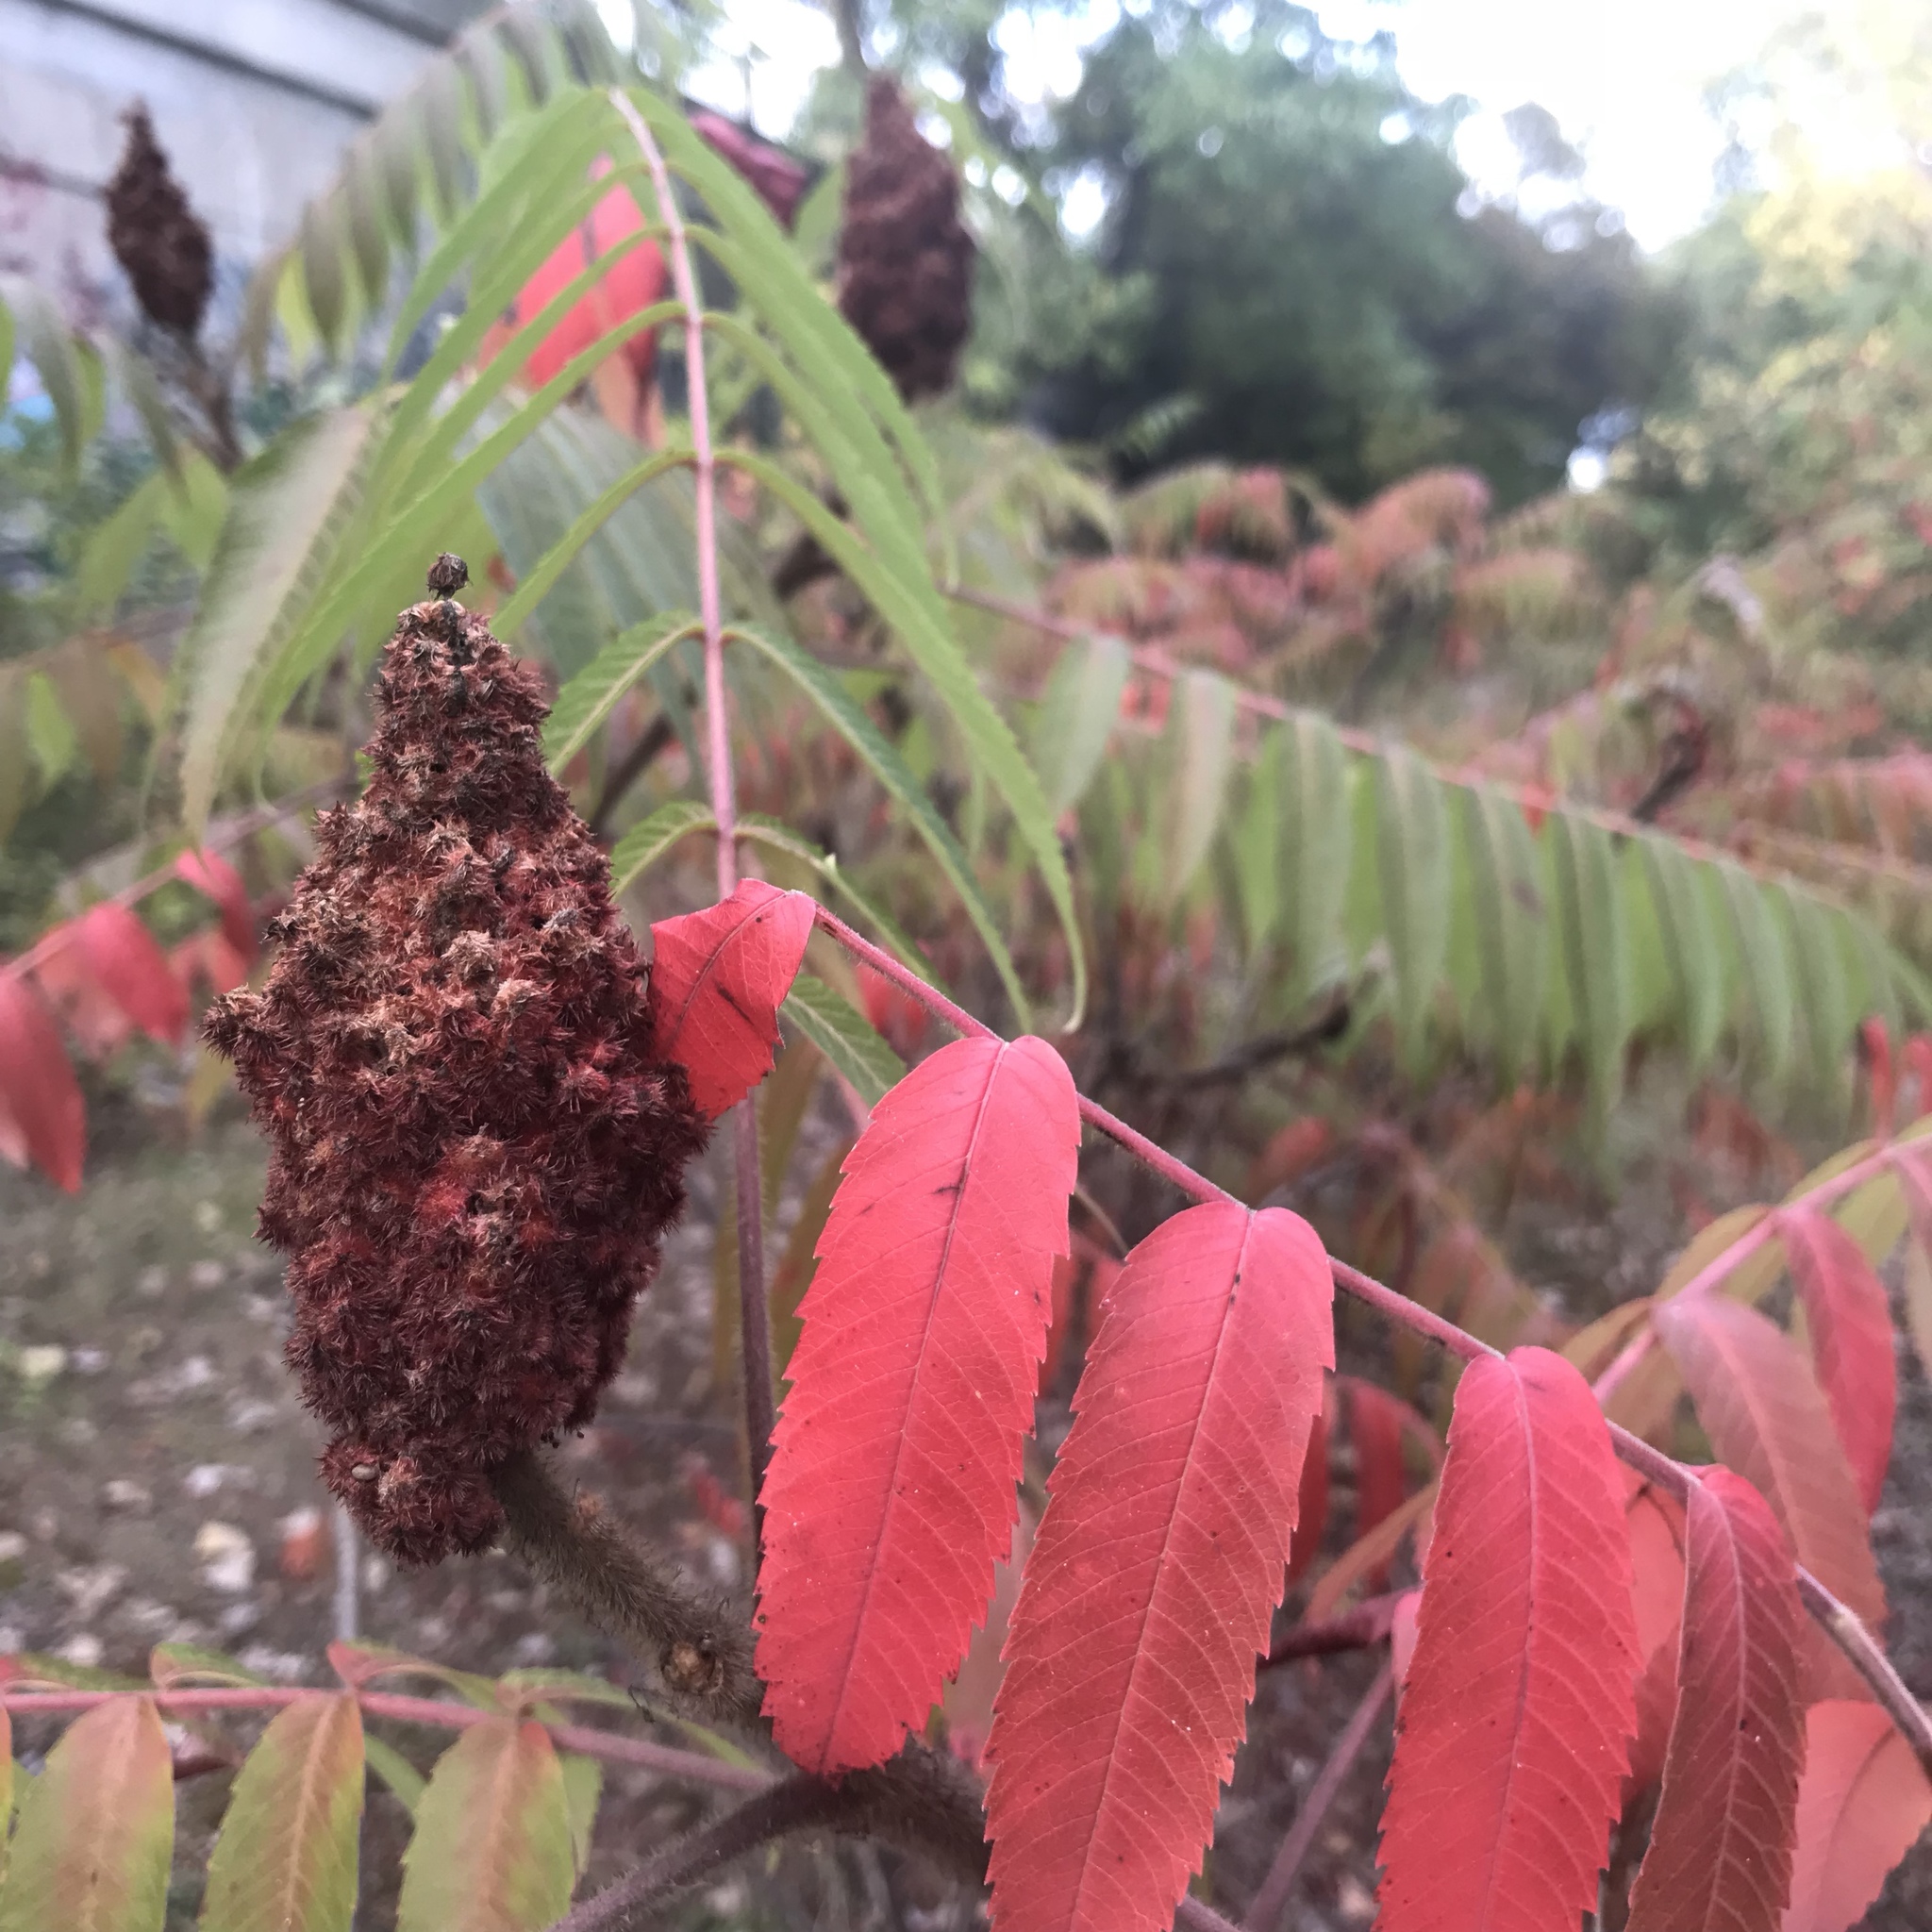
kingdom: Plantae
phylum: Tracheophyta
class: Magnoliopsida
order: Sapindales
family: Anacardiaceae
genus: Rhus
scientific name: Rhus typhina
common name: Staghorn sumac
